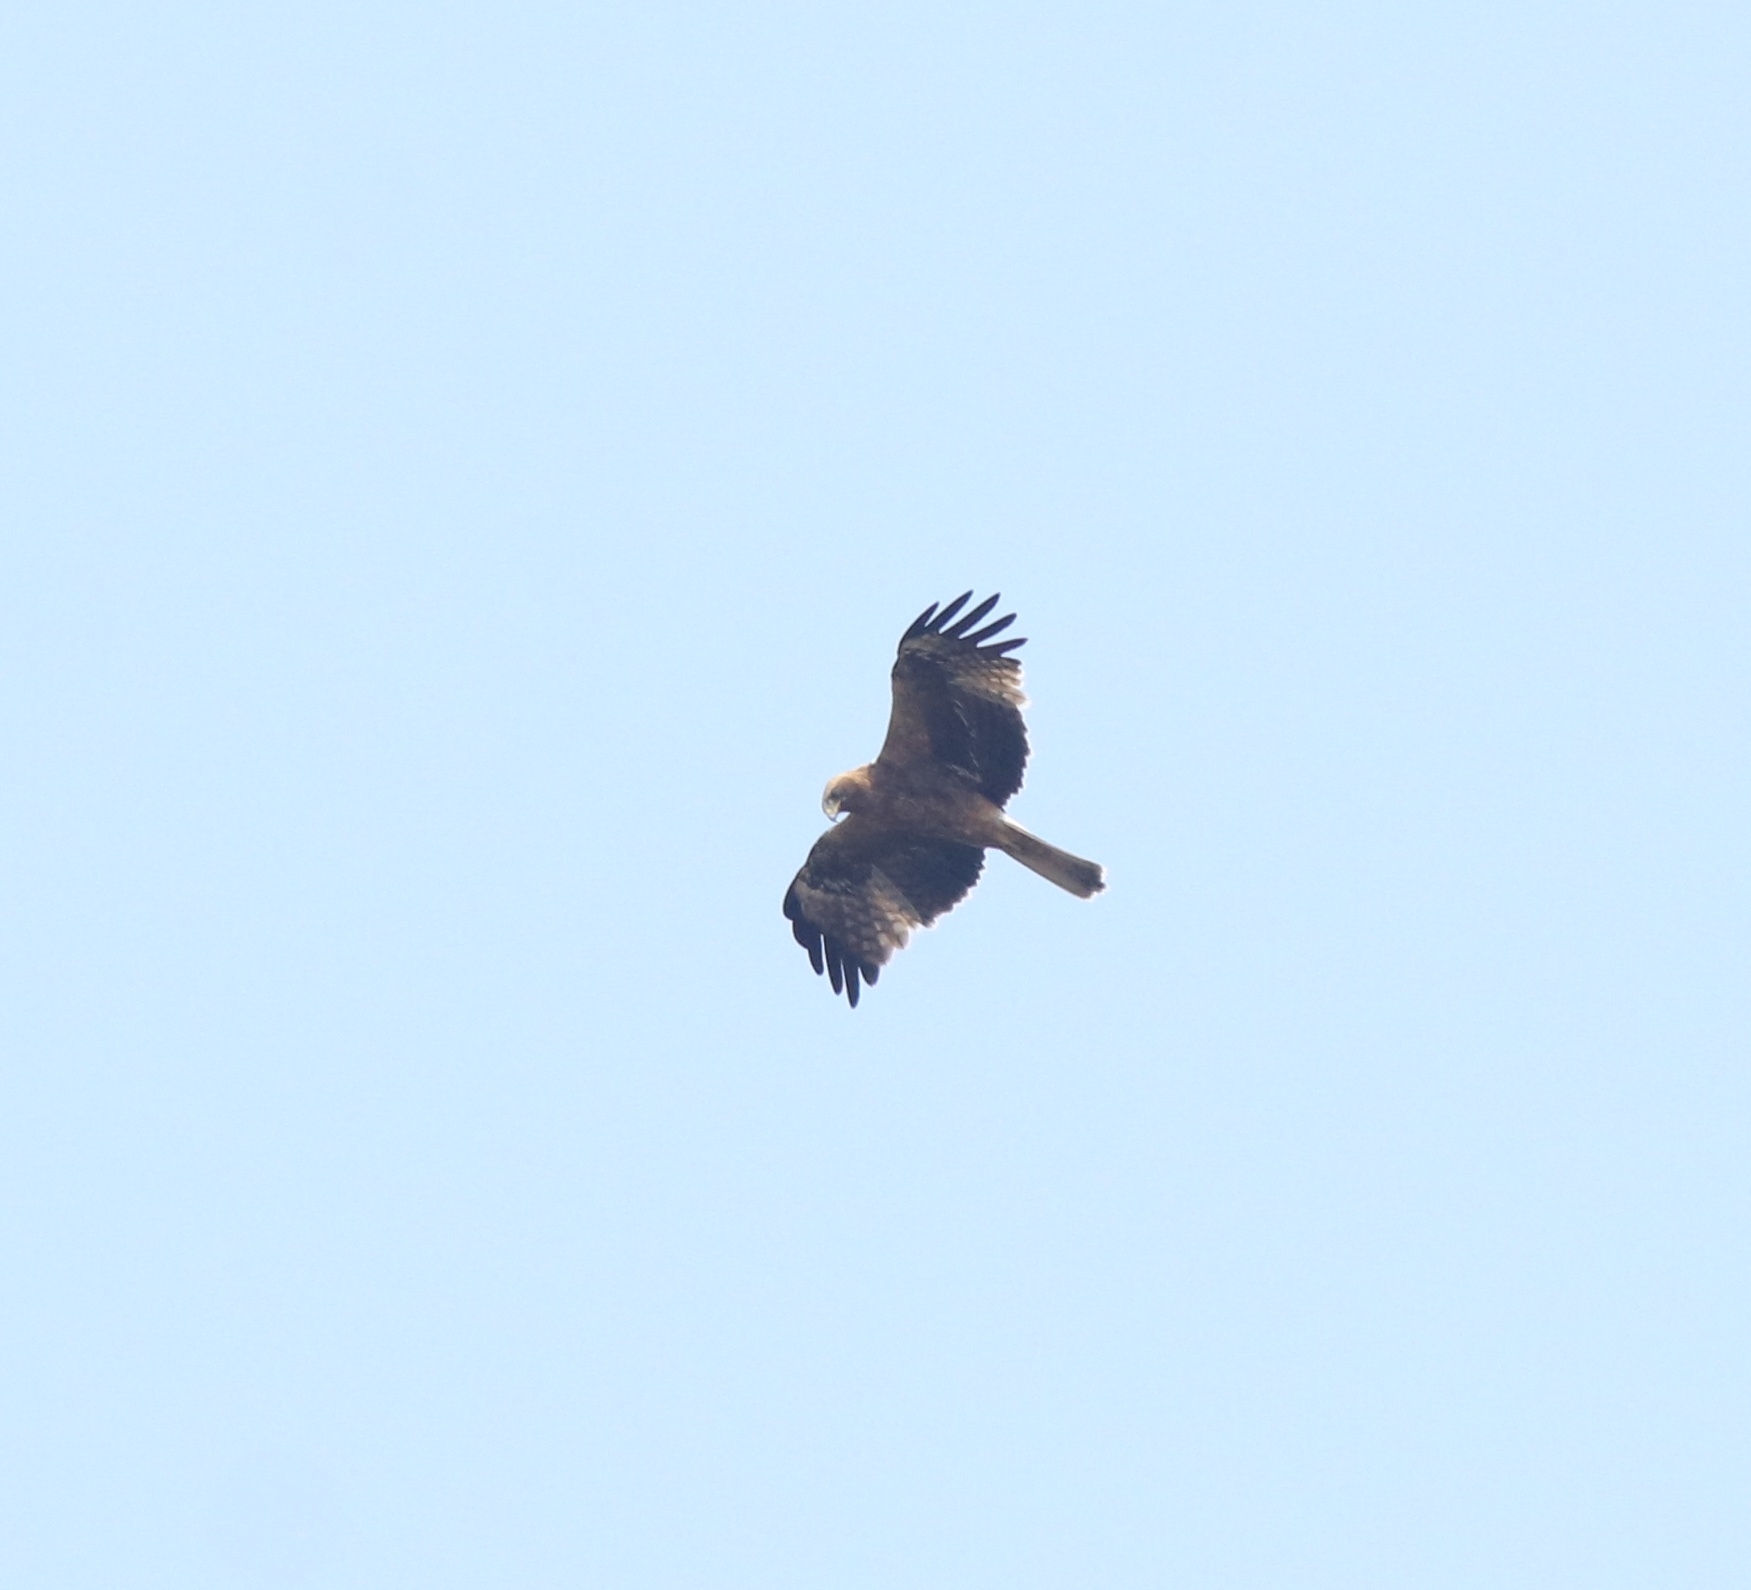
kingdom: Animalia
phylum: Chordata
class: Aves
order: Accipitriformes
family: Accipitridae
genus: Hieraaetus
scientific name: Hieraaetus pennatus
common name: Booted eagle
